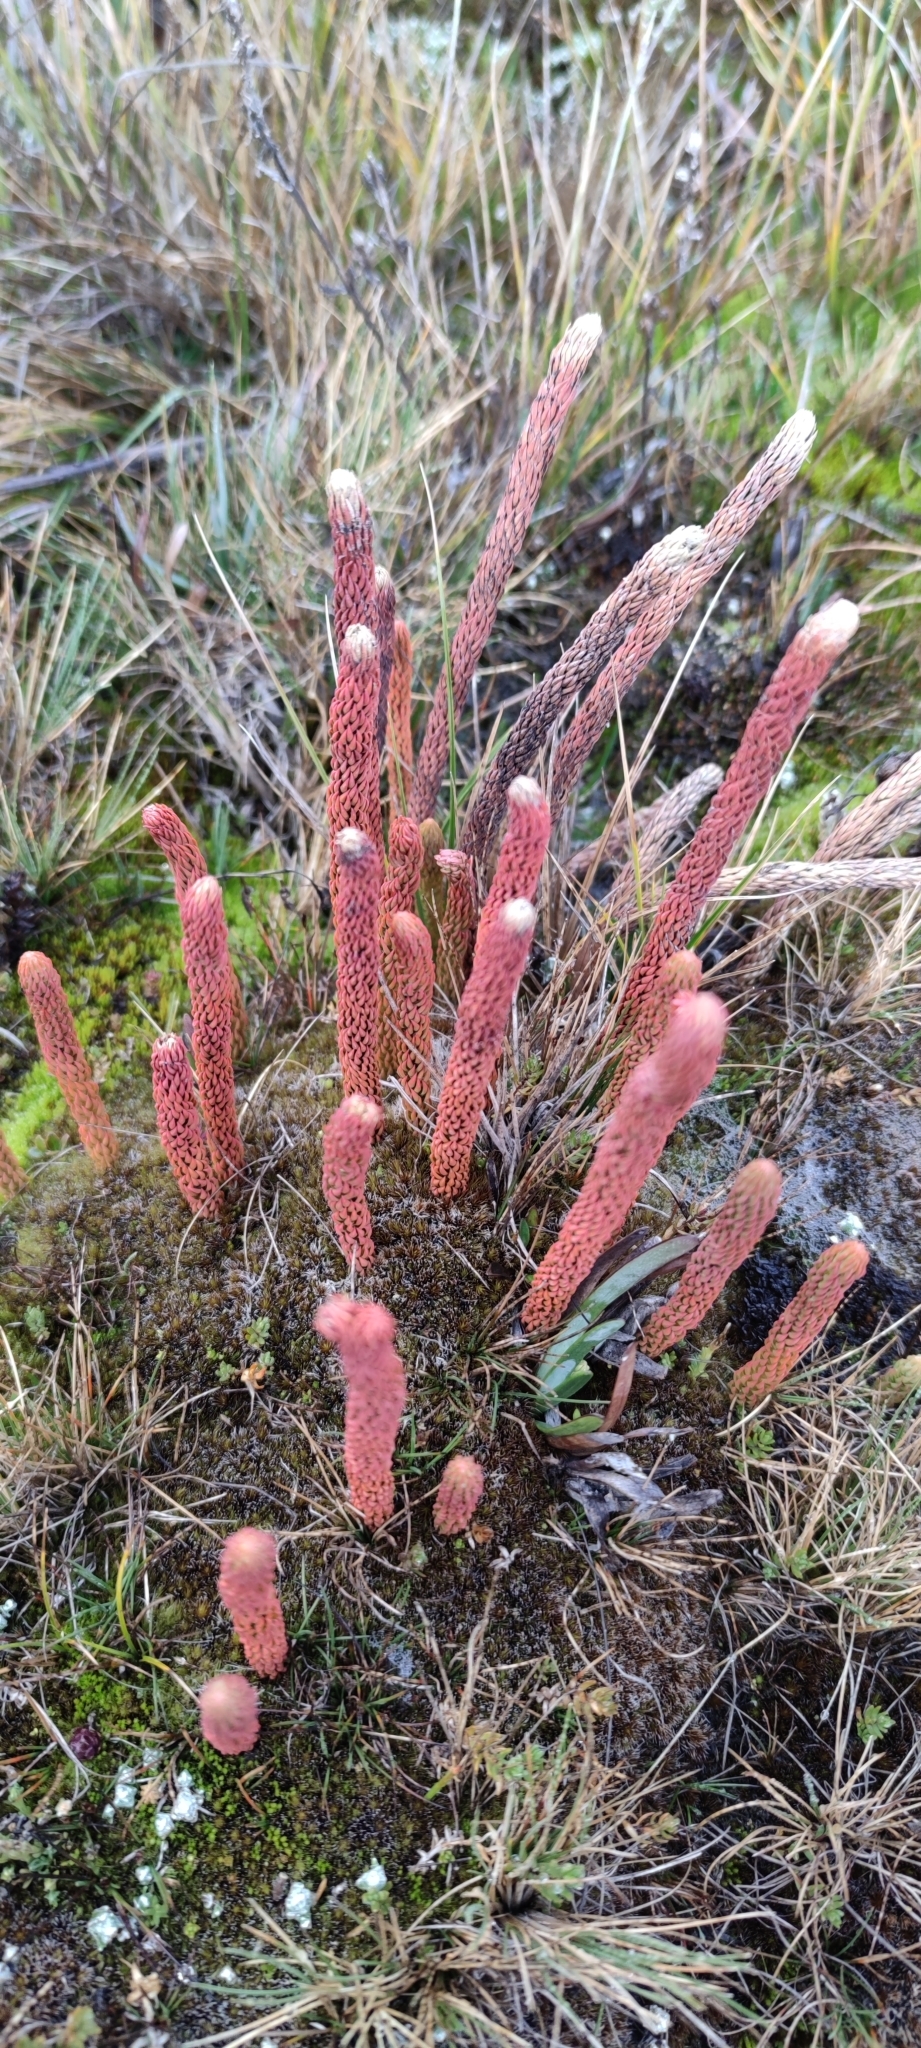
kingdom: Plantae
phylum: Tracheophyta
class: Lycopodiopsida
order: Lycopodiales
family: Lycopodiaceae
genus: Phlegmariurus
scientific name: Phlegmariurus crassus
